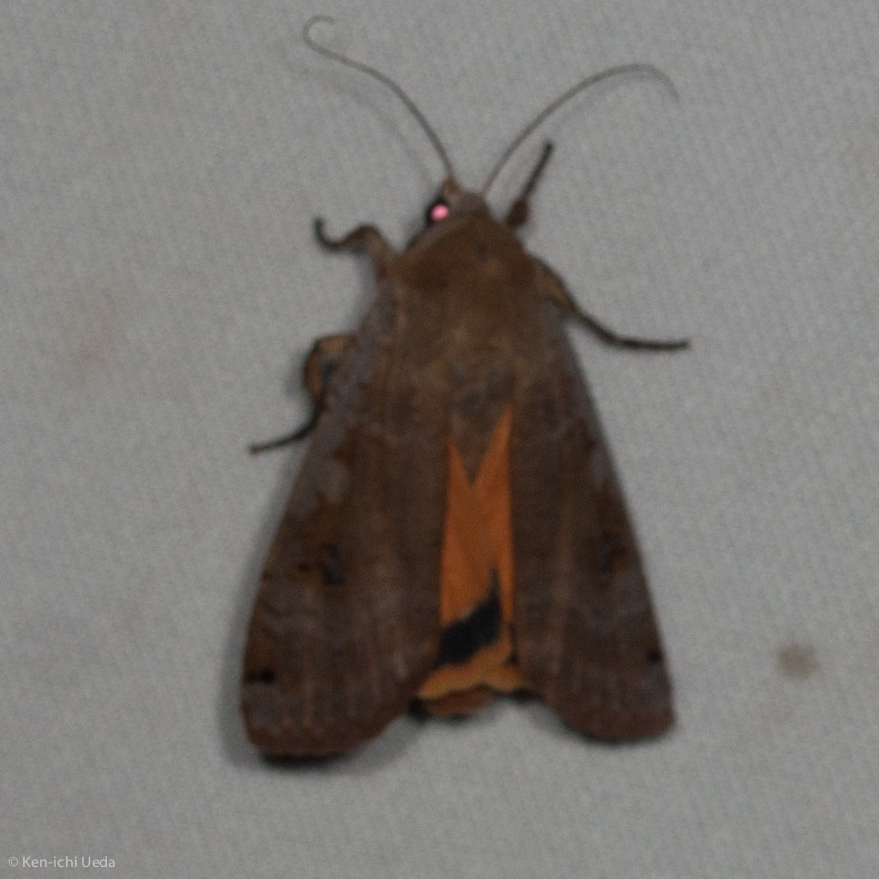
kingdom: Animalia
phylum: Arthropoda
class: Insecta
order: Lepidoptera
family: Noctuidae
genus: Noctua
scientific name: Noctua pronuba
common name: Large yellow underwing
